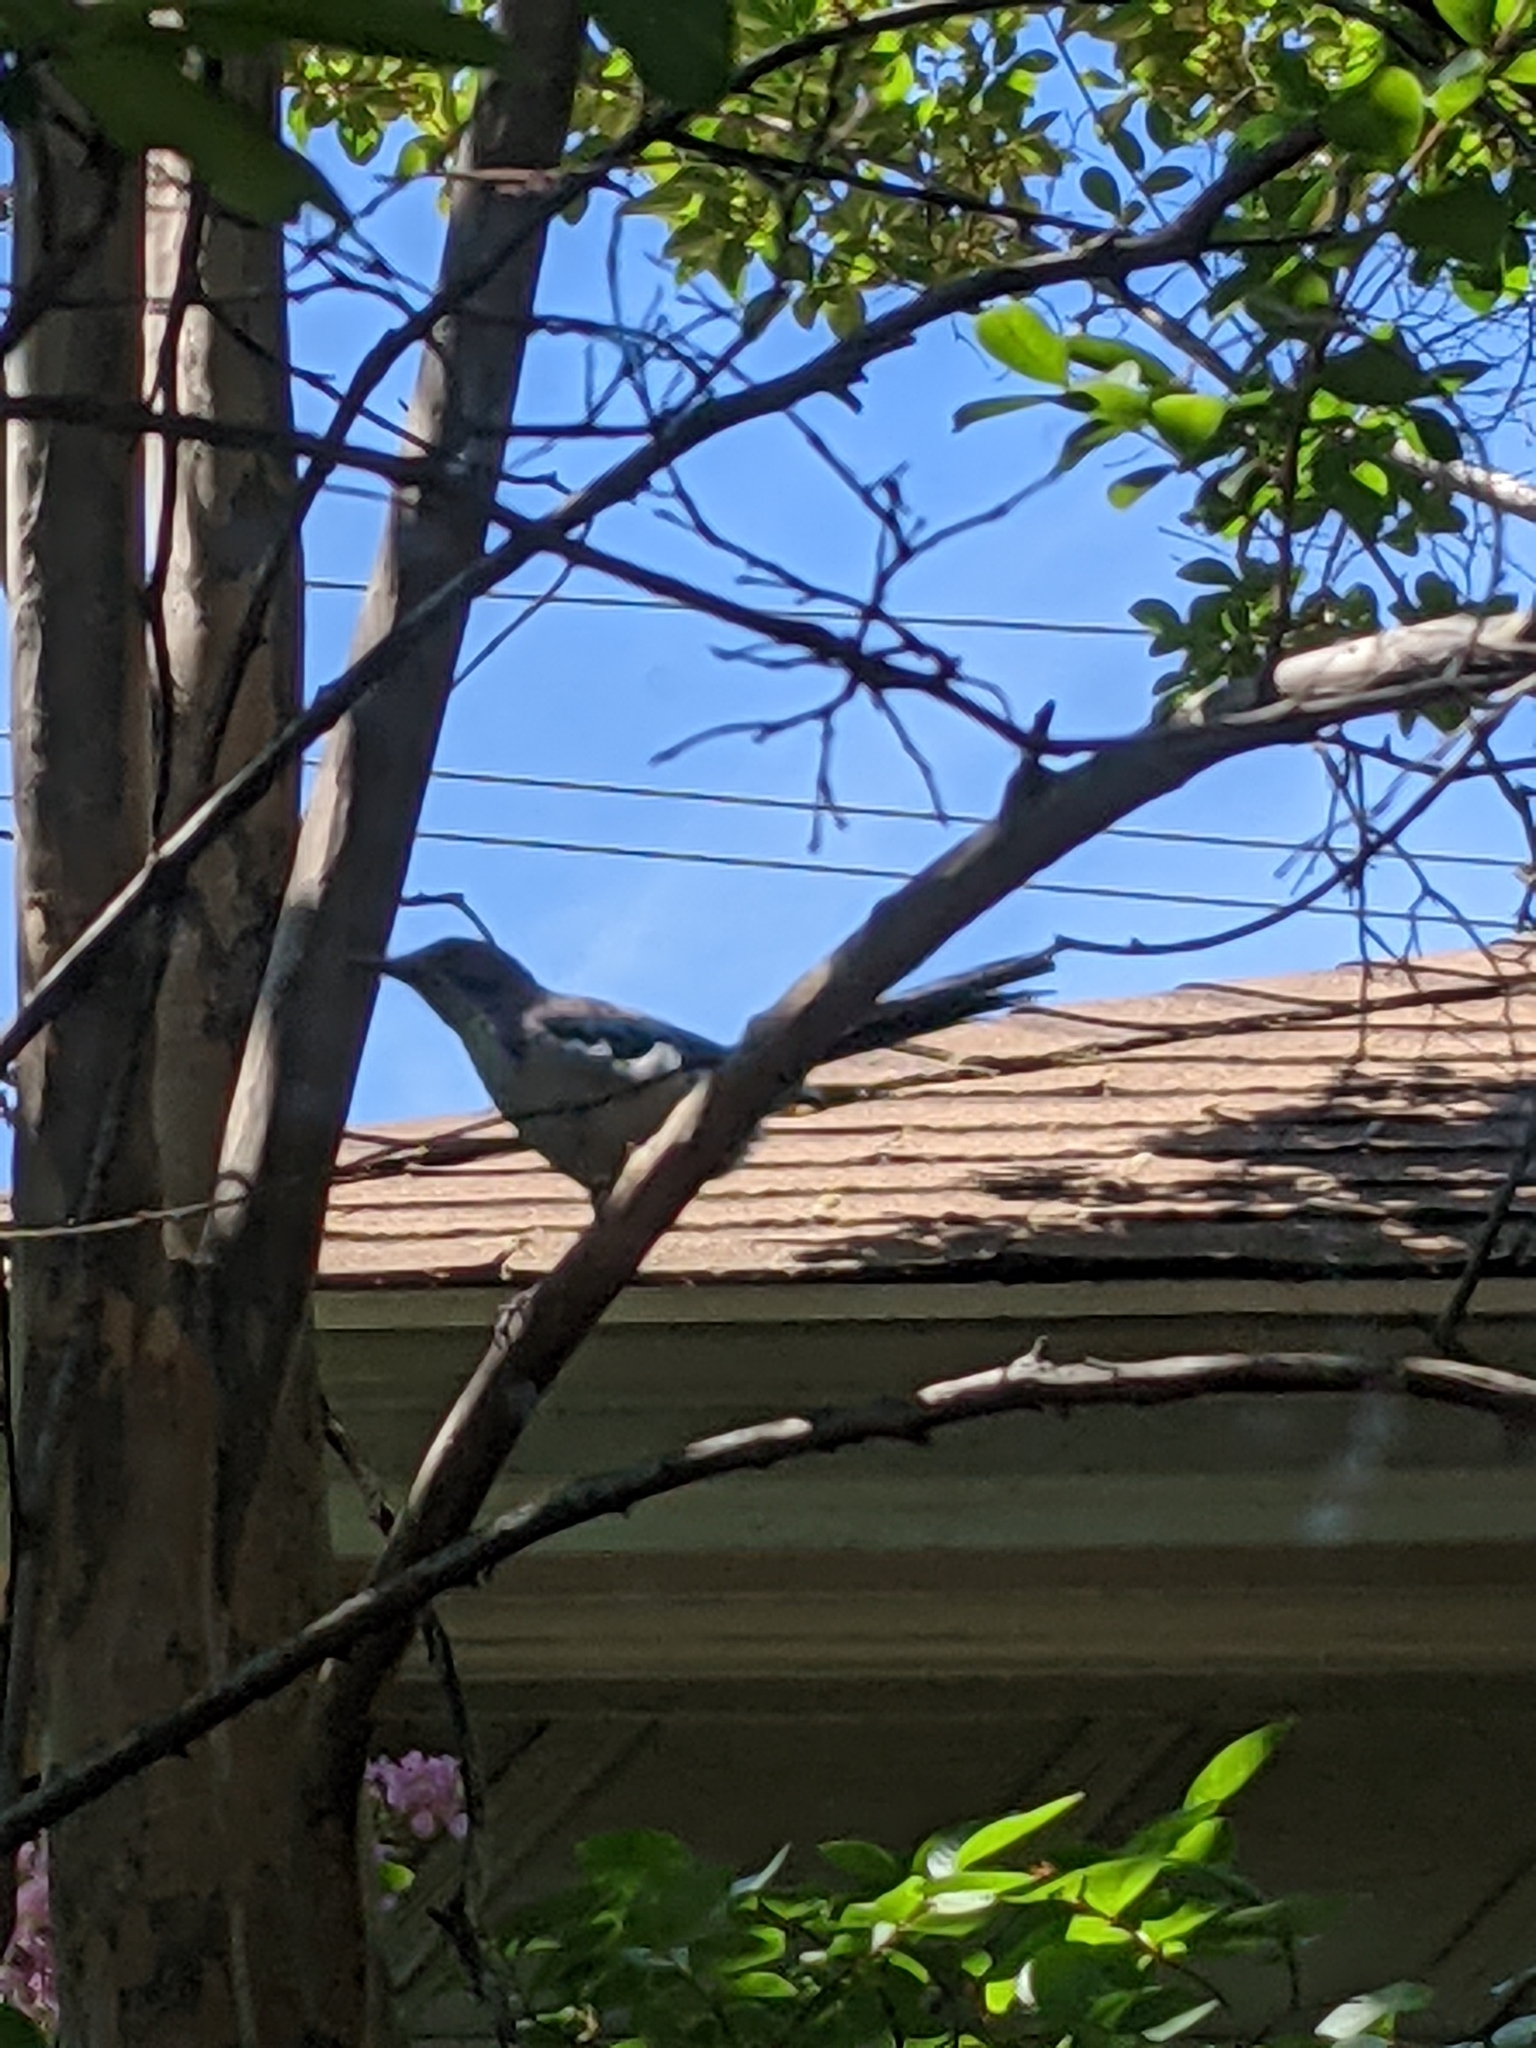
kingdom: Animalia
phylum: Chordata
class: Aves
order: Passeriformes
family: Corvidae
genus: Aphelocoma
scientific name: Aphelocoma californica
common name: California scrub-jay
